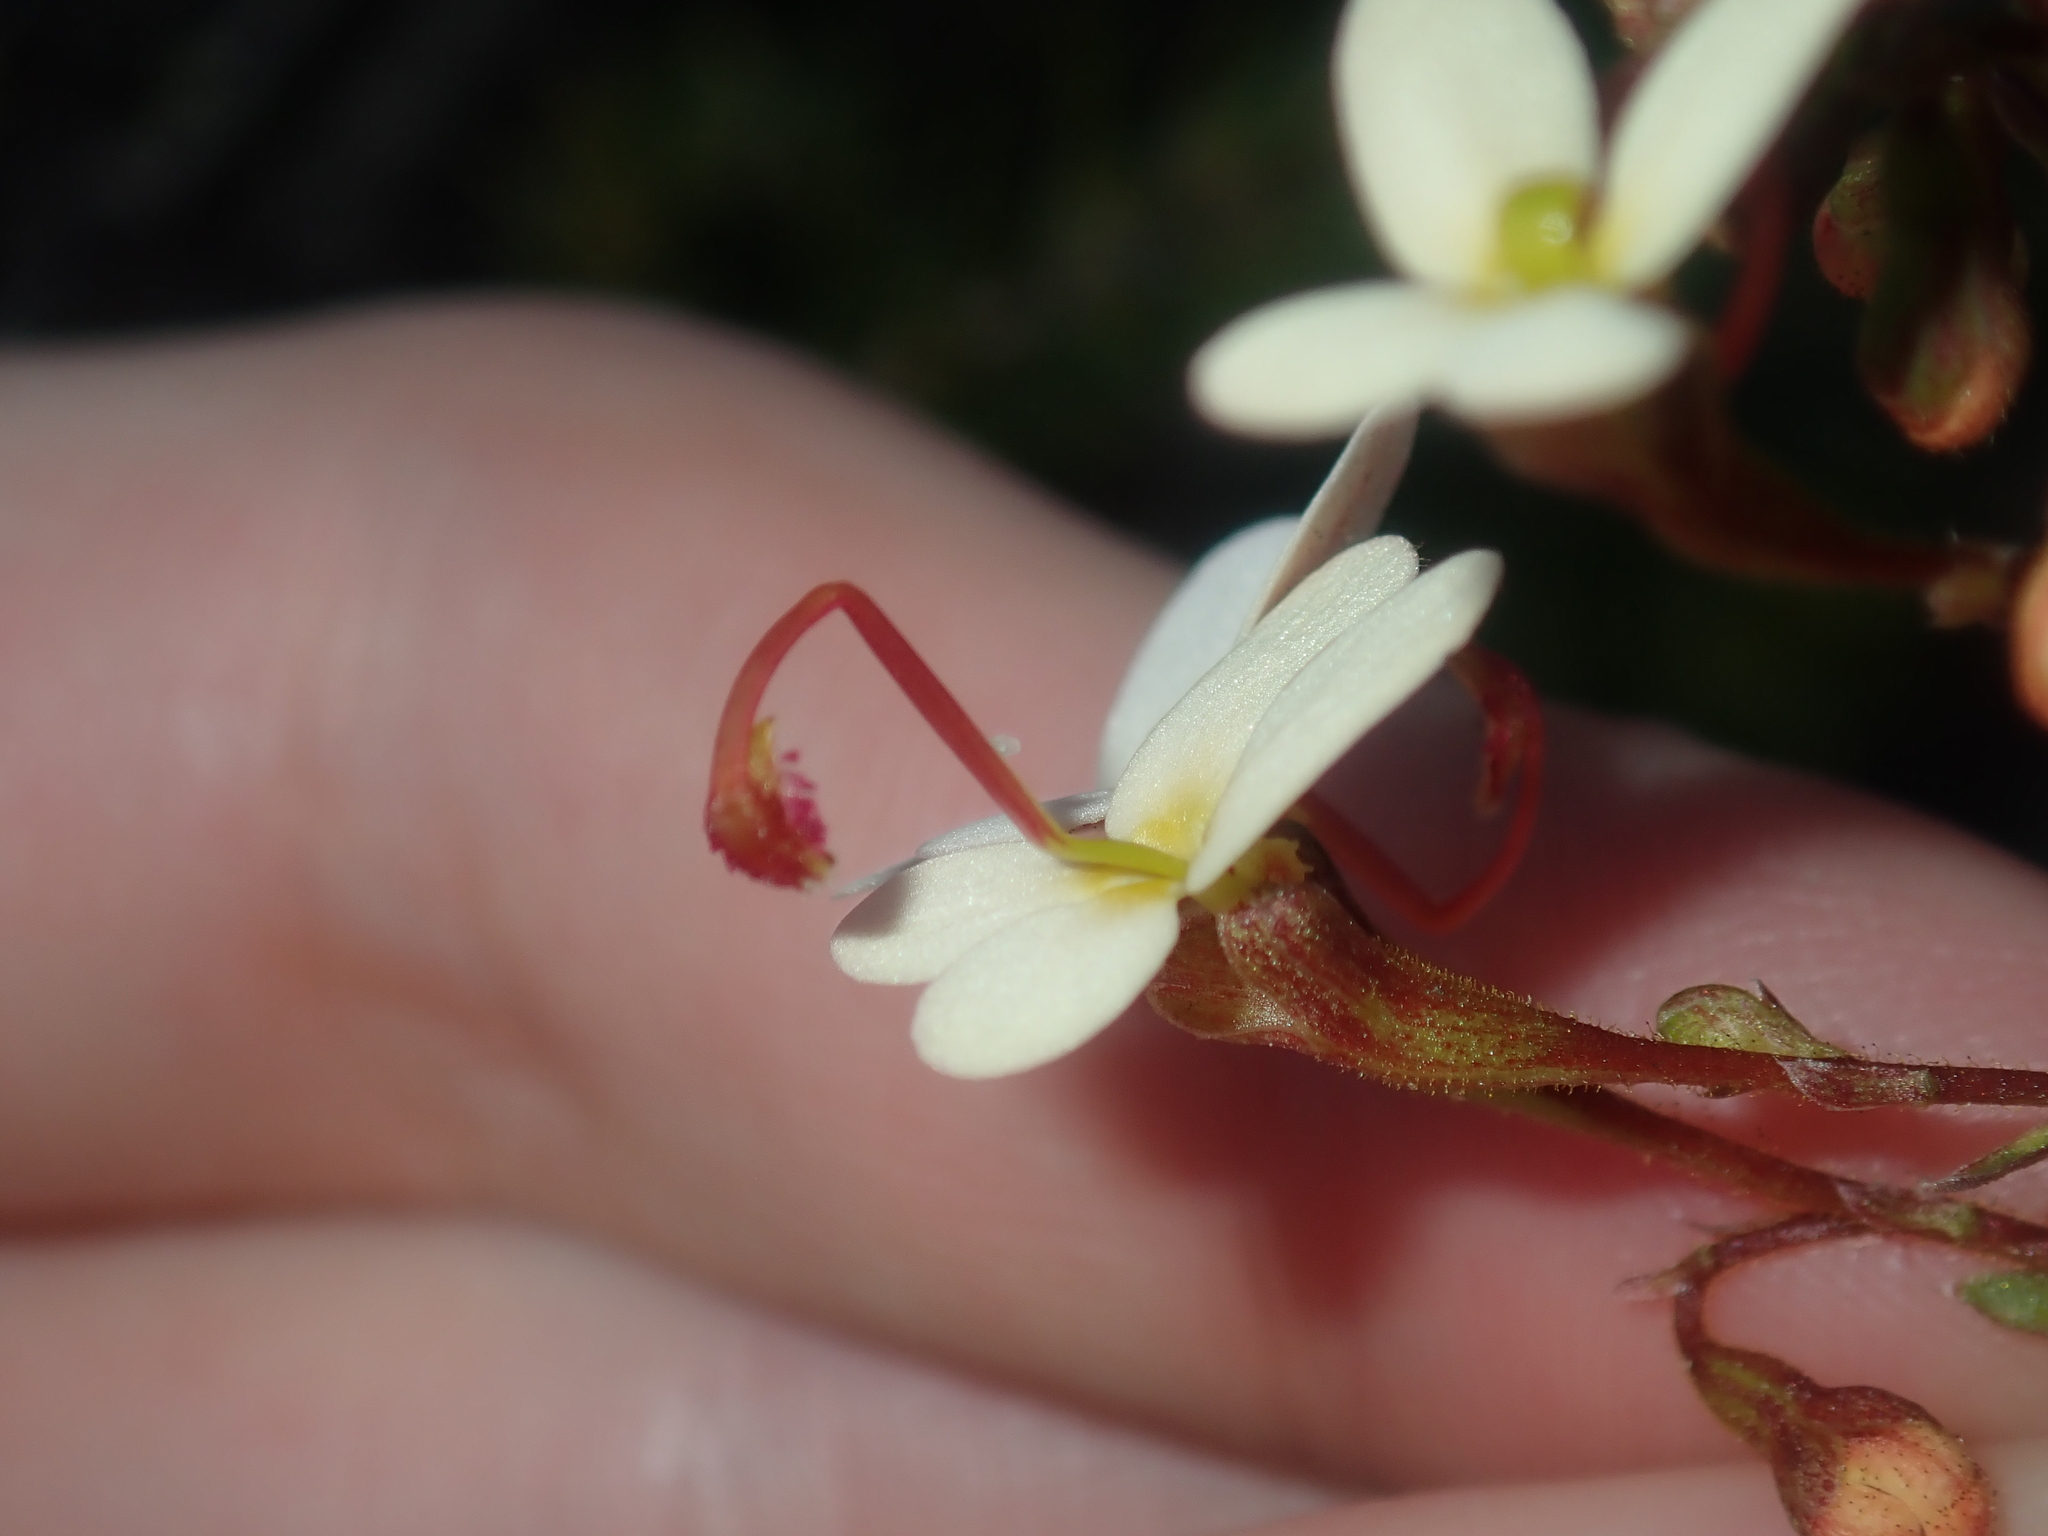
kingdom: Plantae
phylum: Tracheophyta
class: Magnoliopsida
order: Asterales
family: Stylidiaceae
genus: Stylidium
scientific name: Stylidium miniatum
